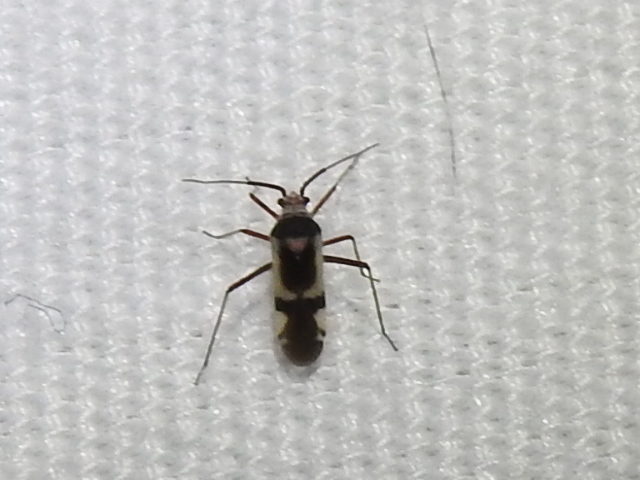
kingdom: Animalia
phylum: Arthropoda
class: Insecta
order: Hemiptera
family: Miridae
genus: Semium
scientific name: Semium hirtum
